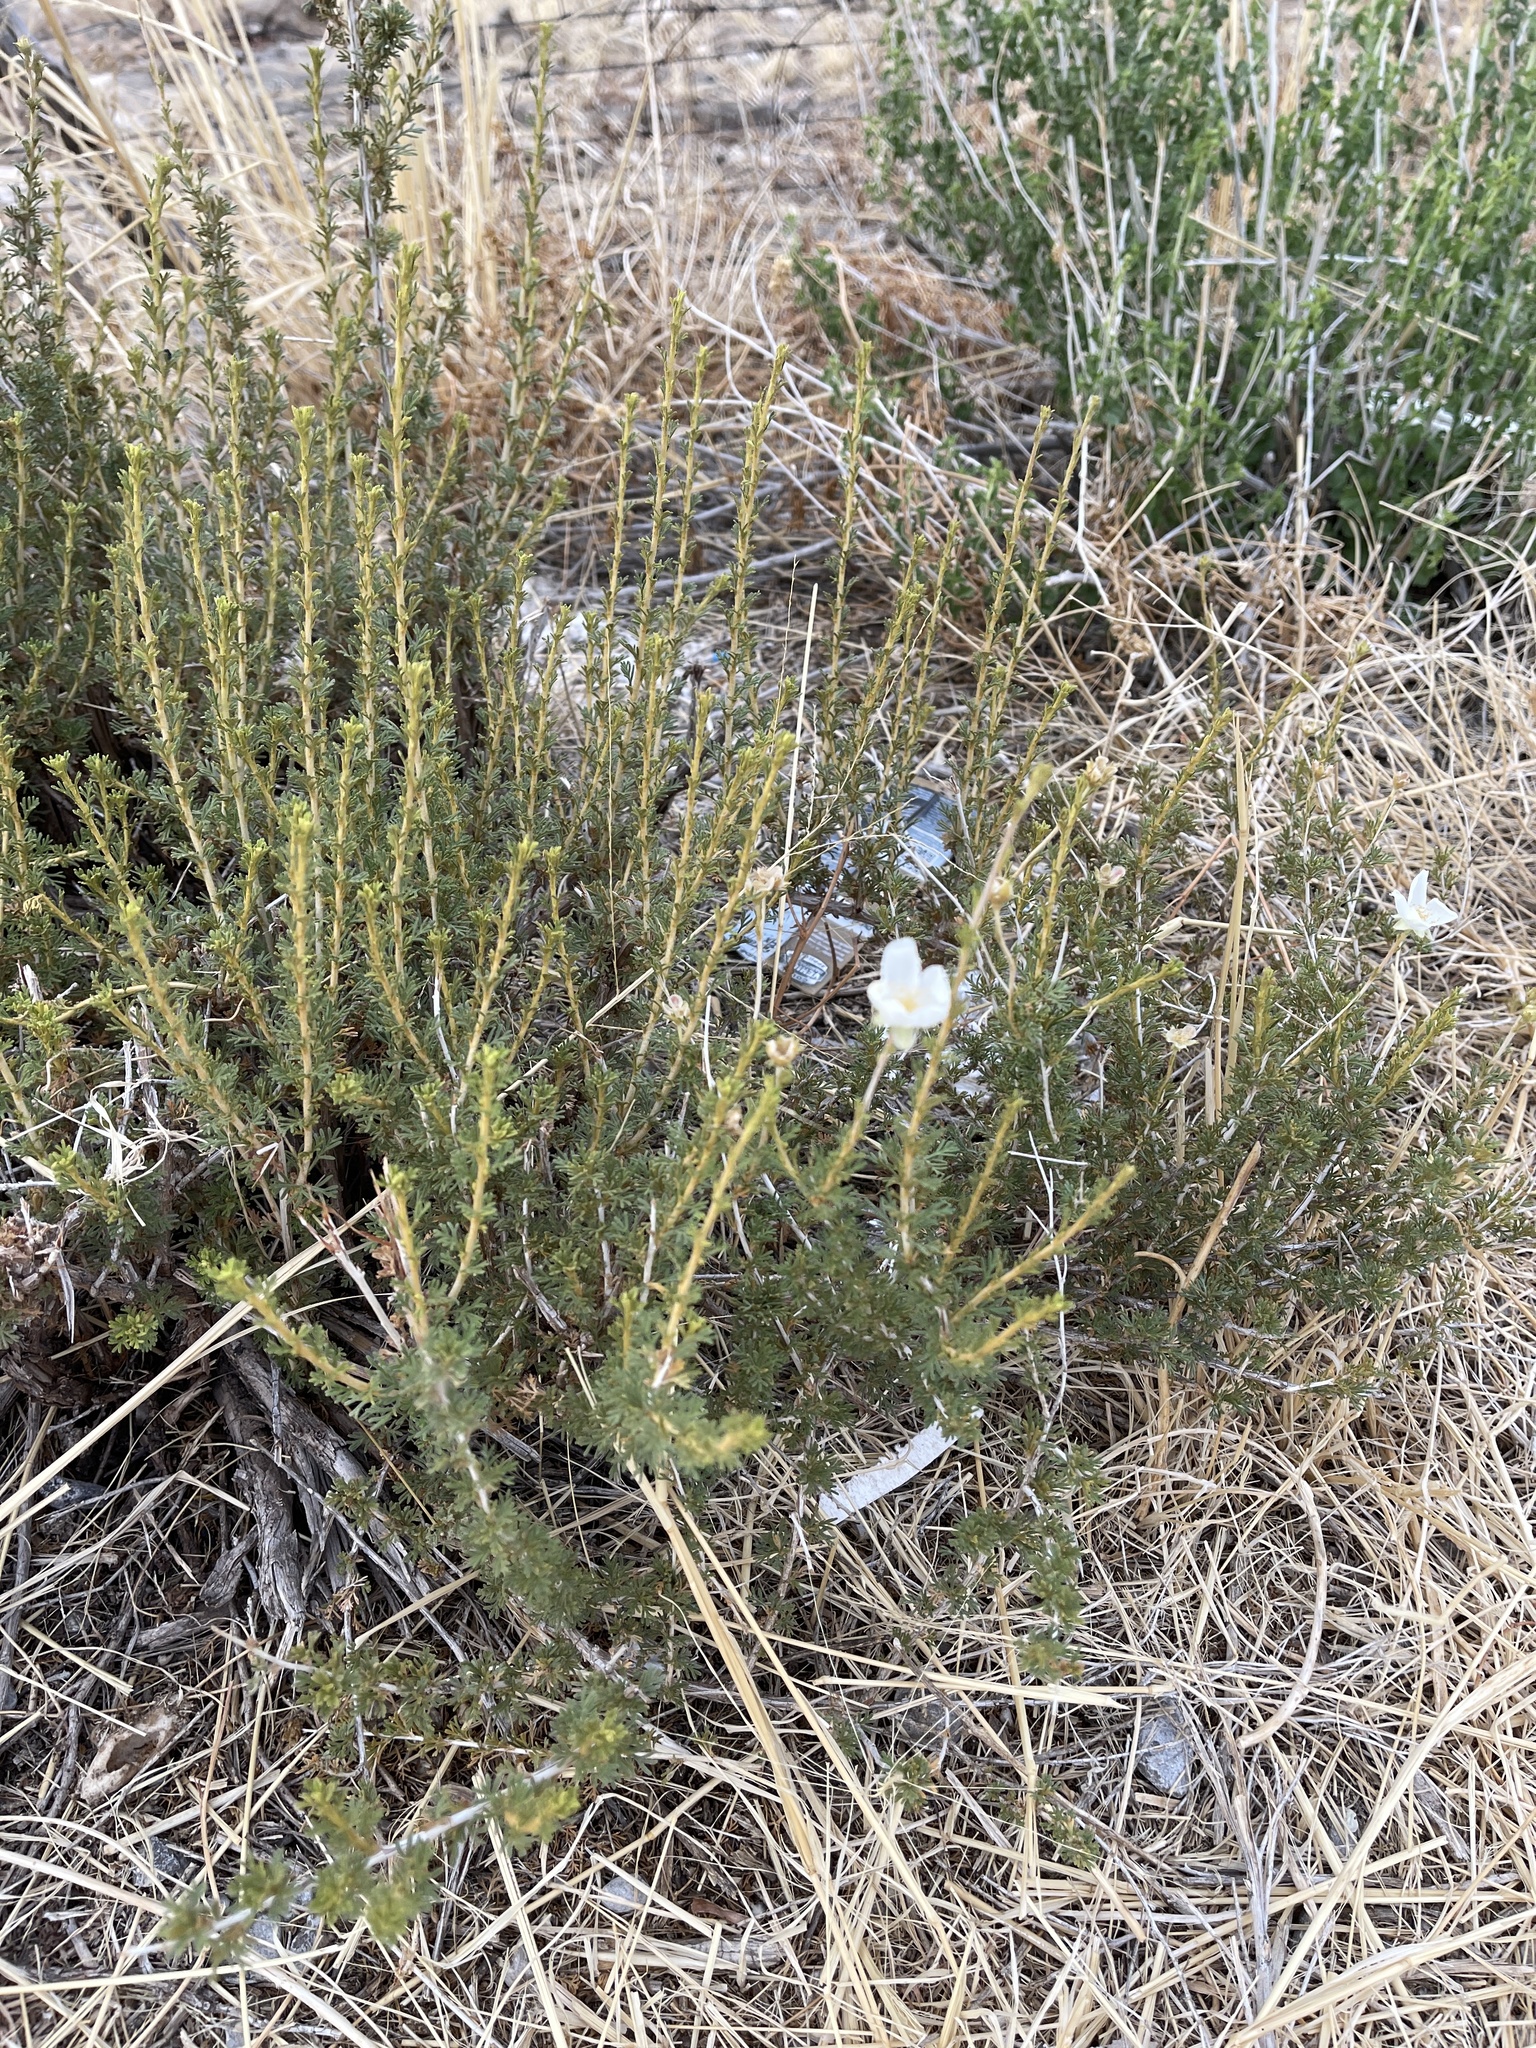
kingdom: Plantae
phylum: Tracheophyta
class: Magnoliopsida
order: Rosales
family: Rosaceae
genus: Fallugia
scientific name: Fallugia paradoxa
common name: Apache-plume
